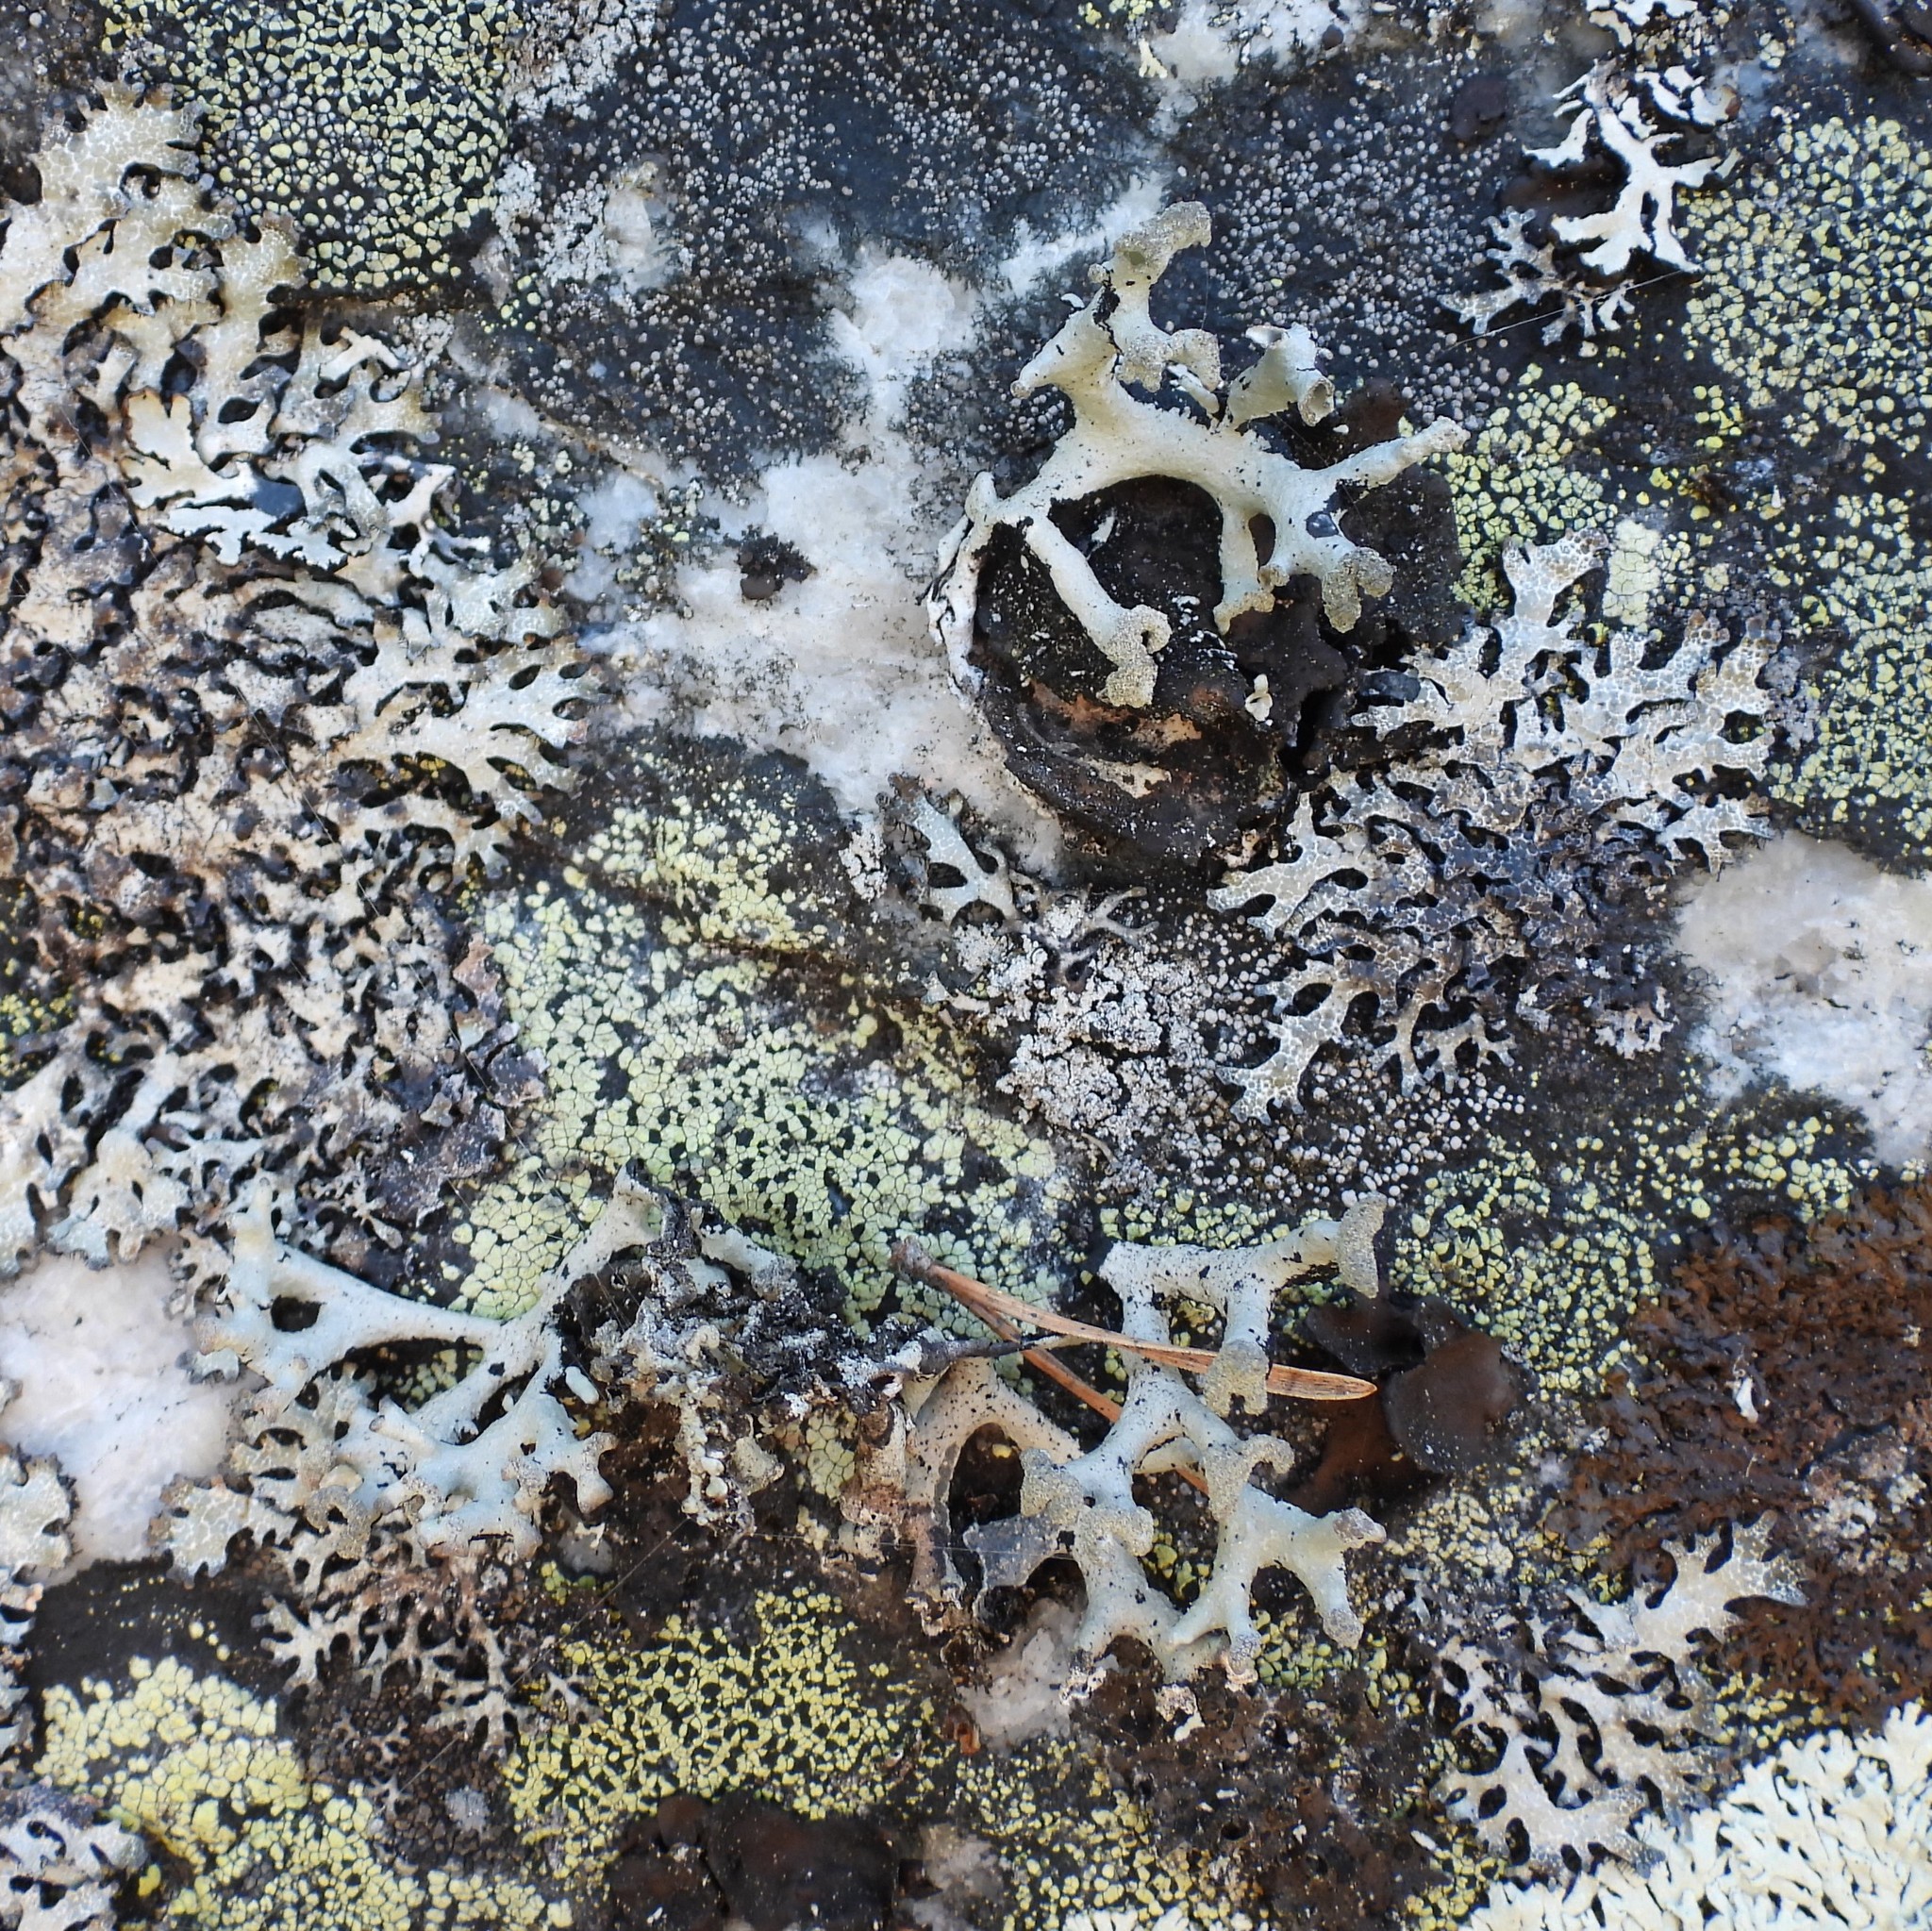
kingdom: Fungi
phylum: Ascomycota
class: Lecanoromycetes
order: Lecanorales
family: Parmeliaceae
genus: Hypogymnia
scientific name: Hypogymnia tubulosa
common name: Powder-headed tube lichen
